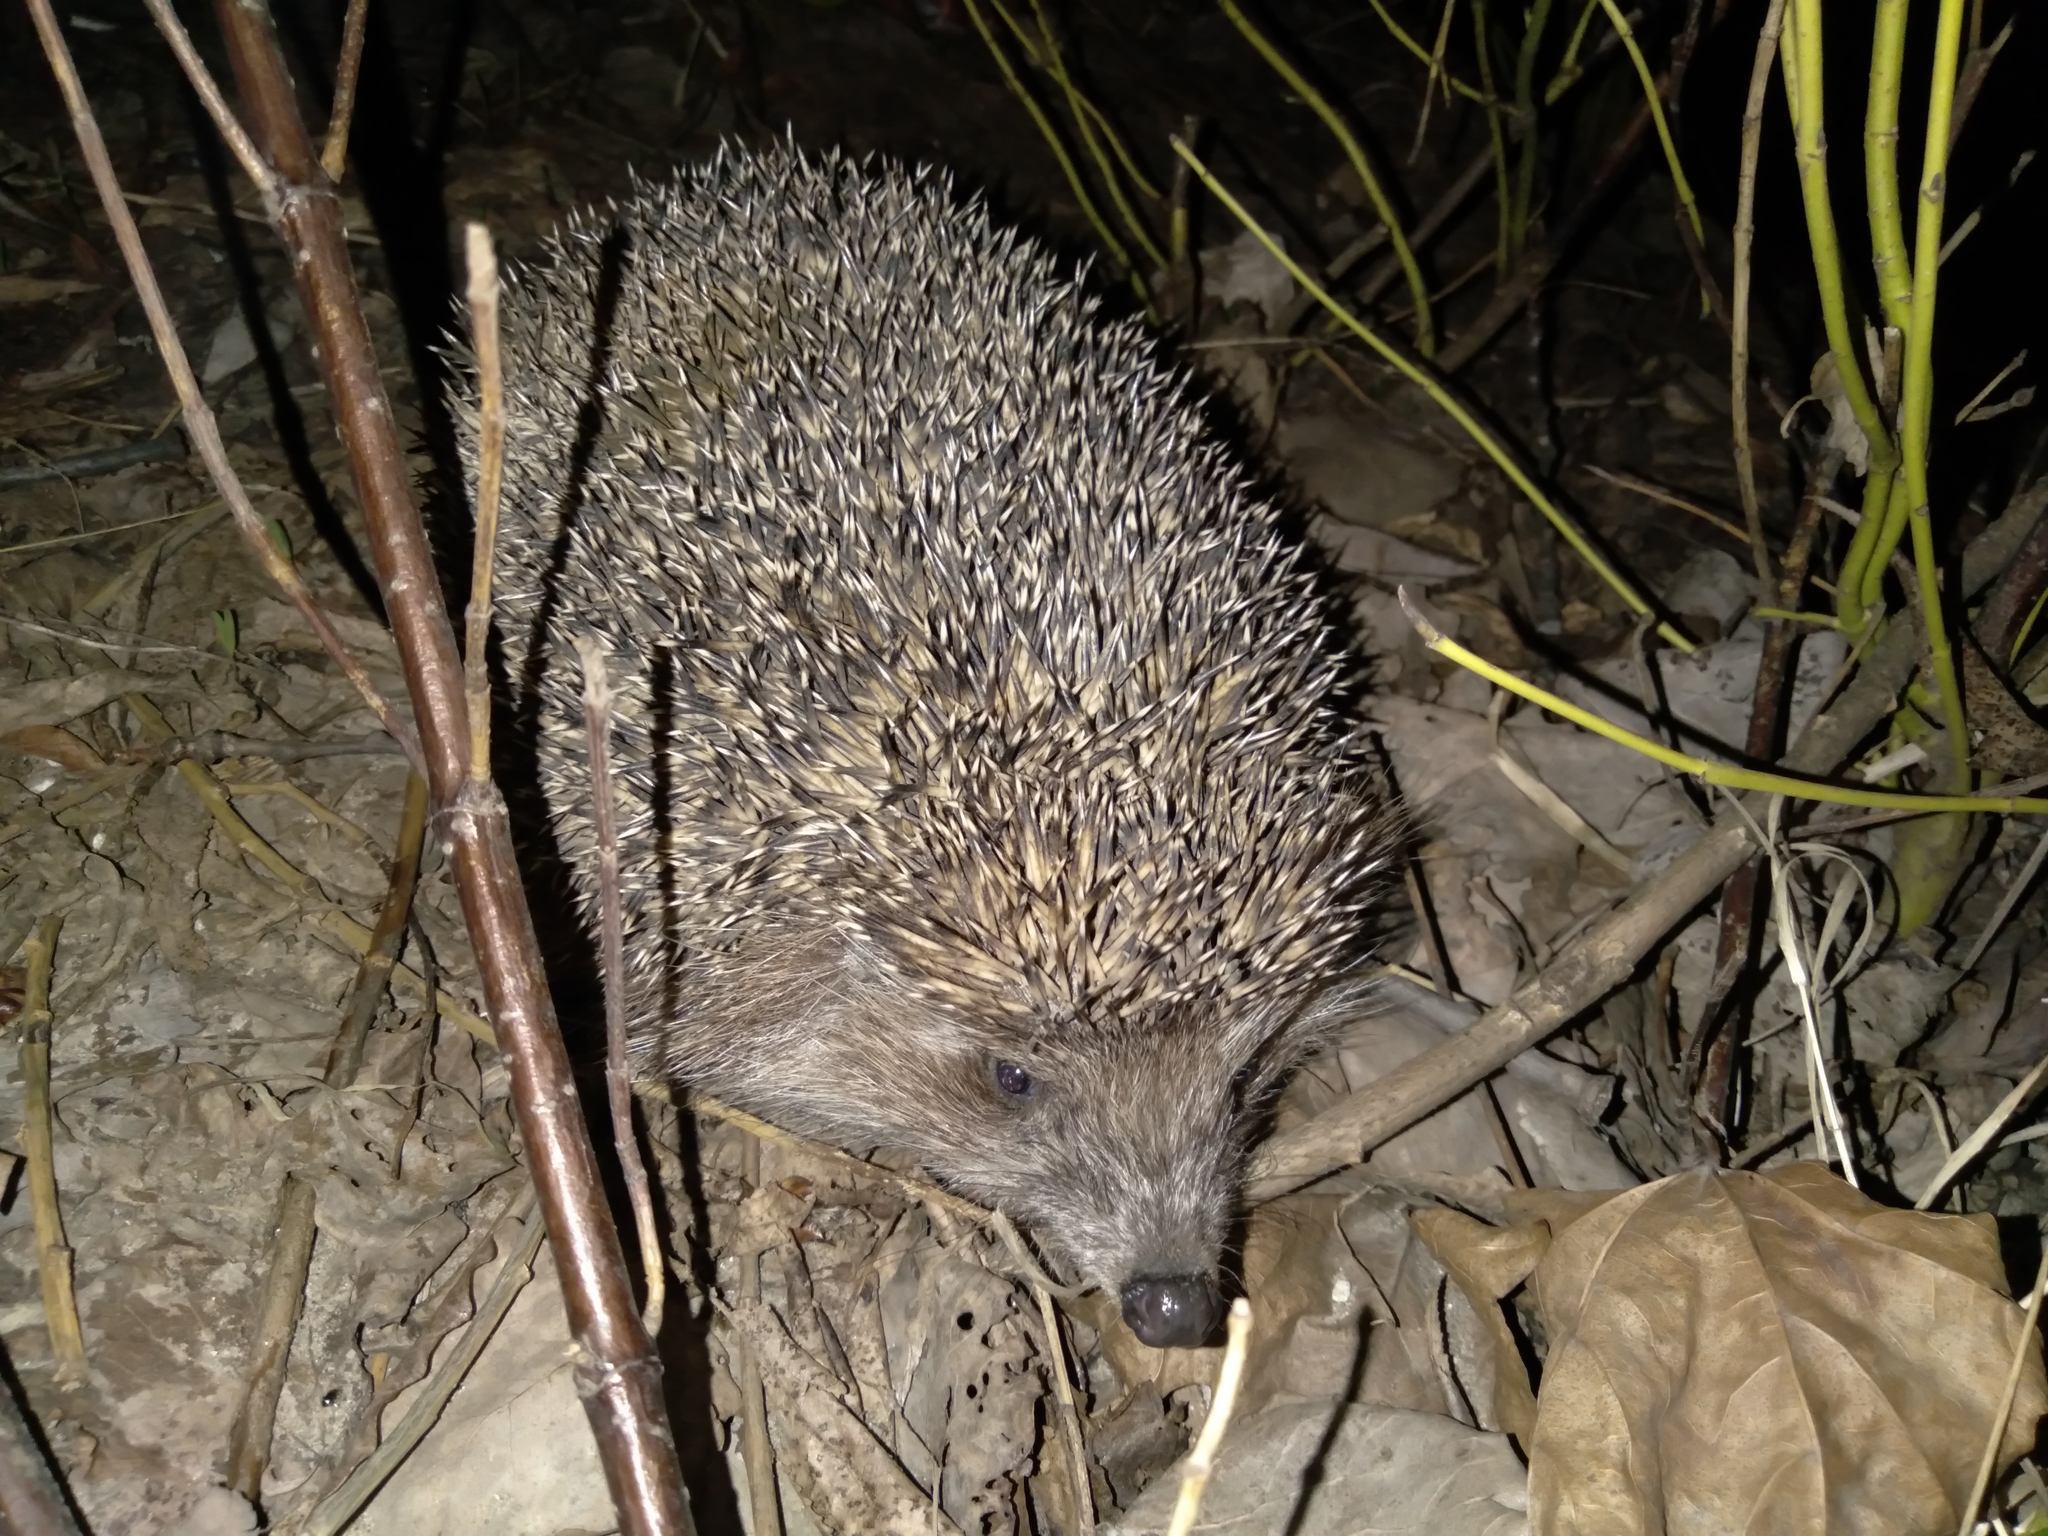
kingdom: Animalia
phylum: Chordata
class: Mammalia
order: Erinaceomorpha
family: Erinaceidae
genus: Erinaceus
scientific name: Erinaceus roumanicus
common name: Northern white-breasted hedgehog
